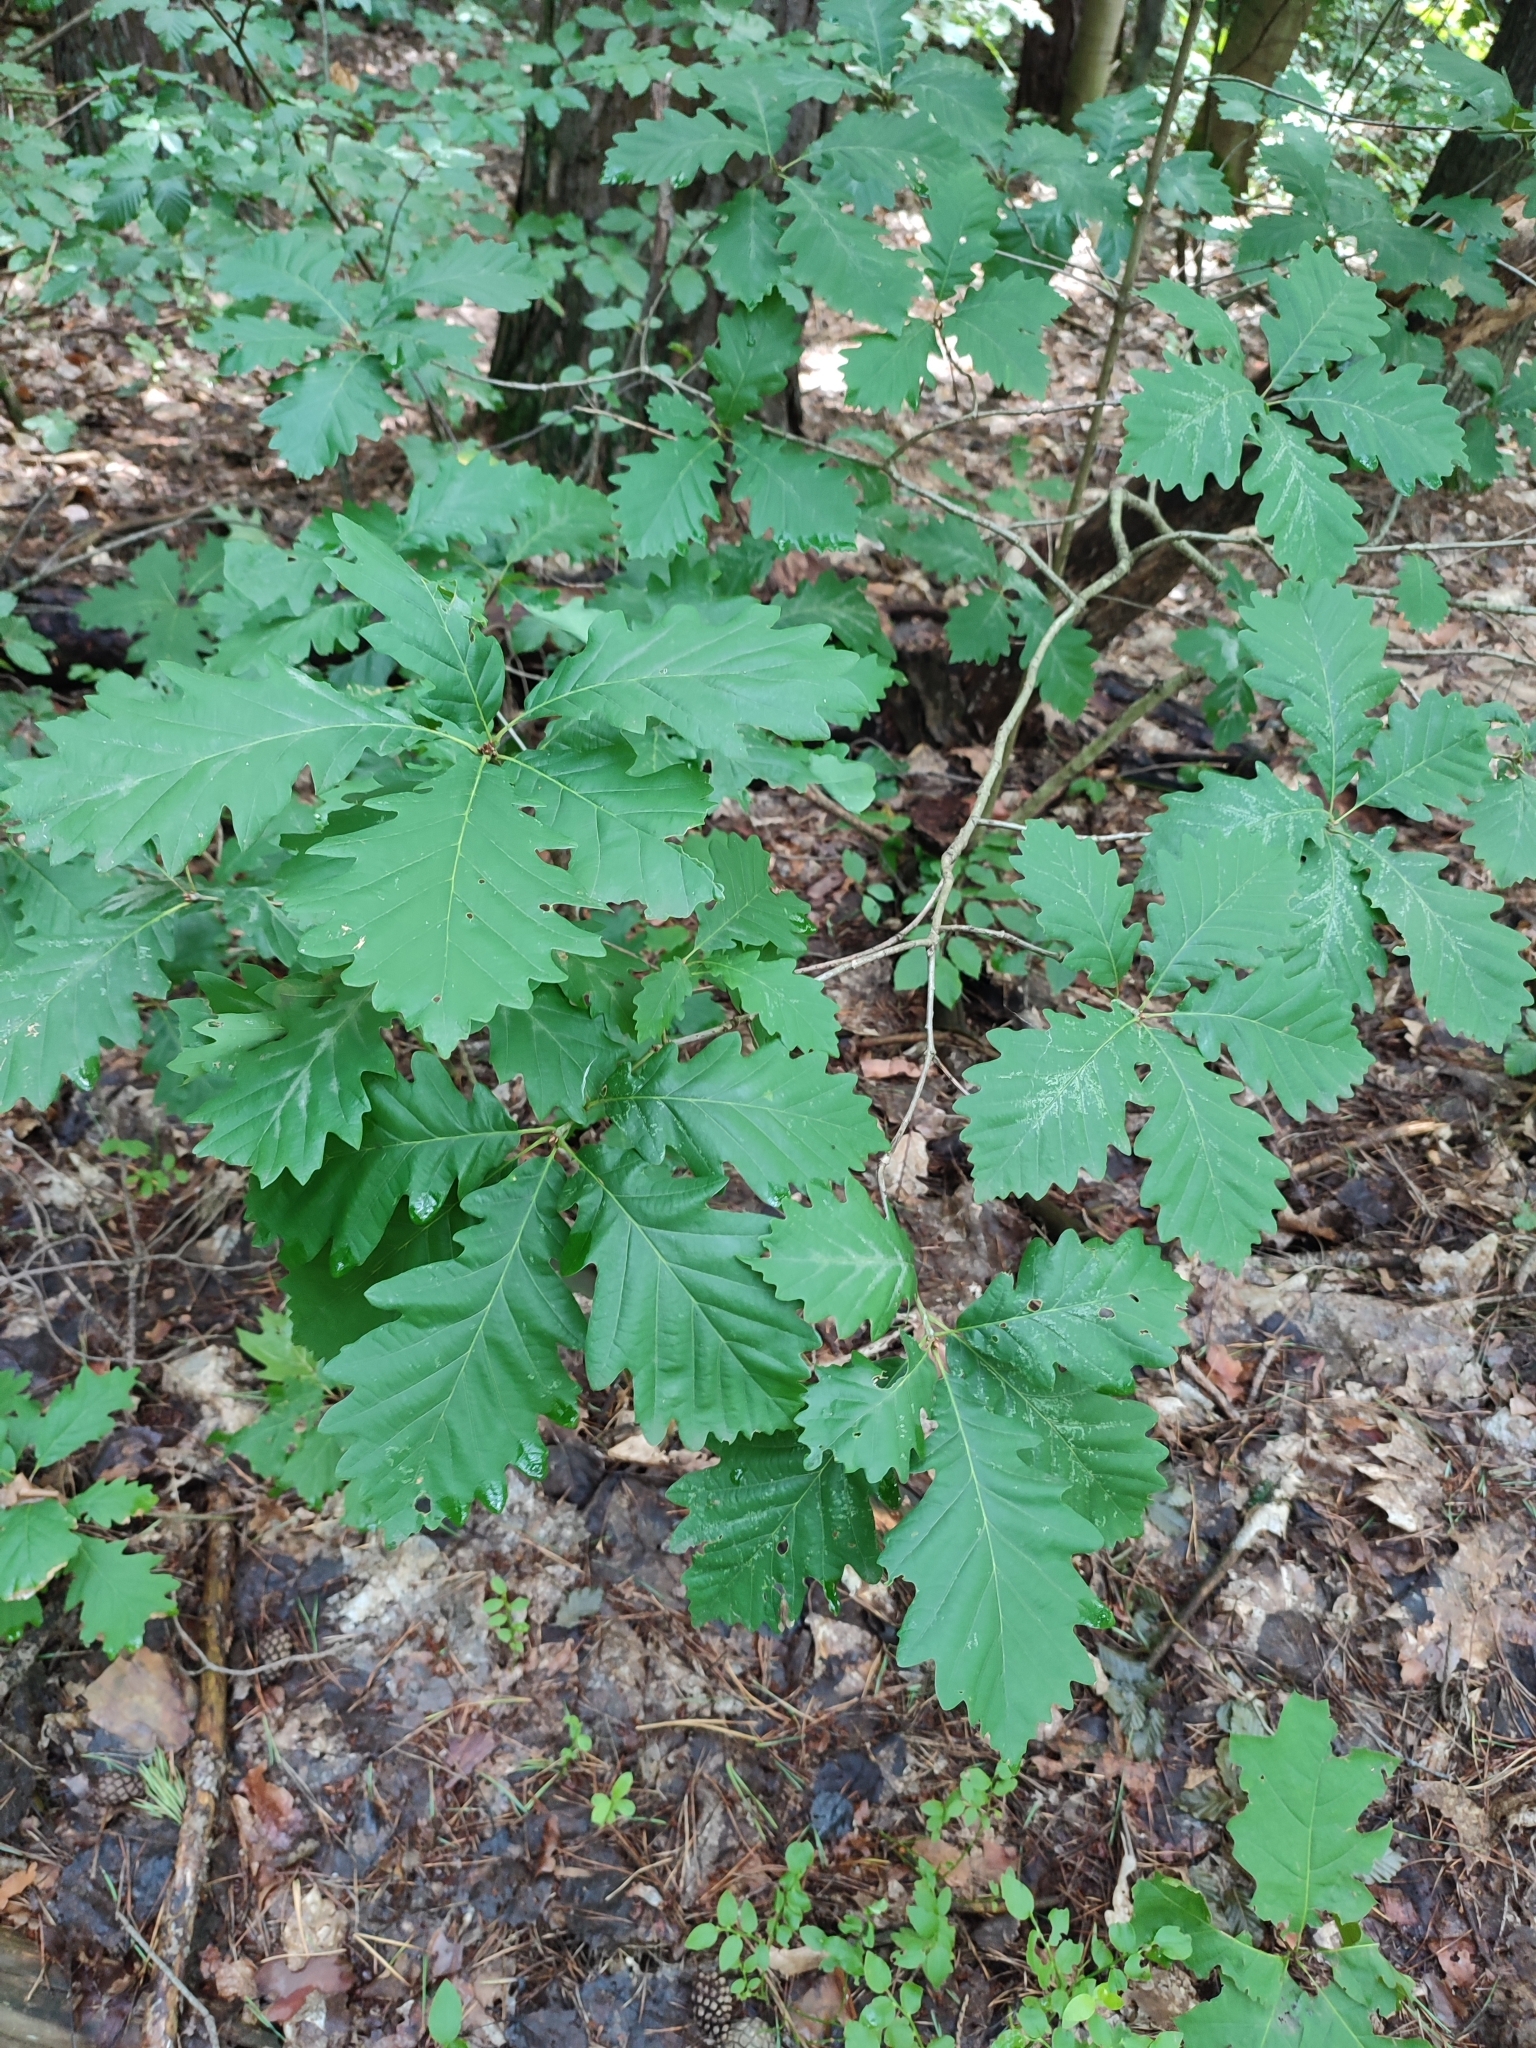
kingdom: Plantae
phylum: Tracheophyta
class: Magnoliopsida
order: Fagales
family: Fagaceae
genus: Quercus
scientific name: Quercus petraea
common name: Sessile oak
